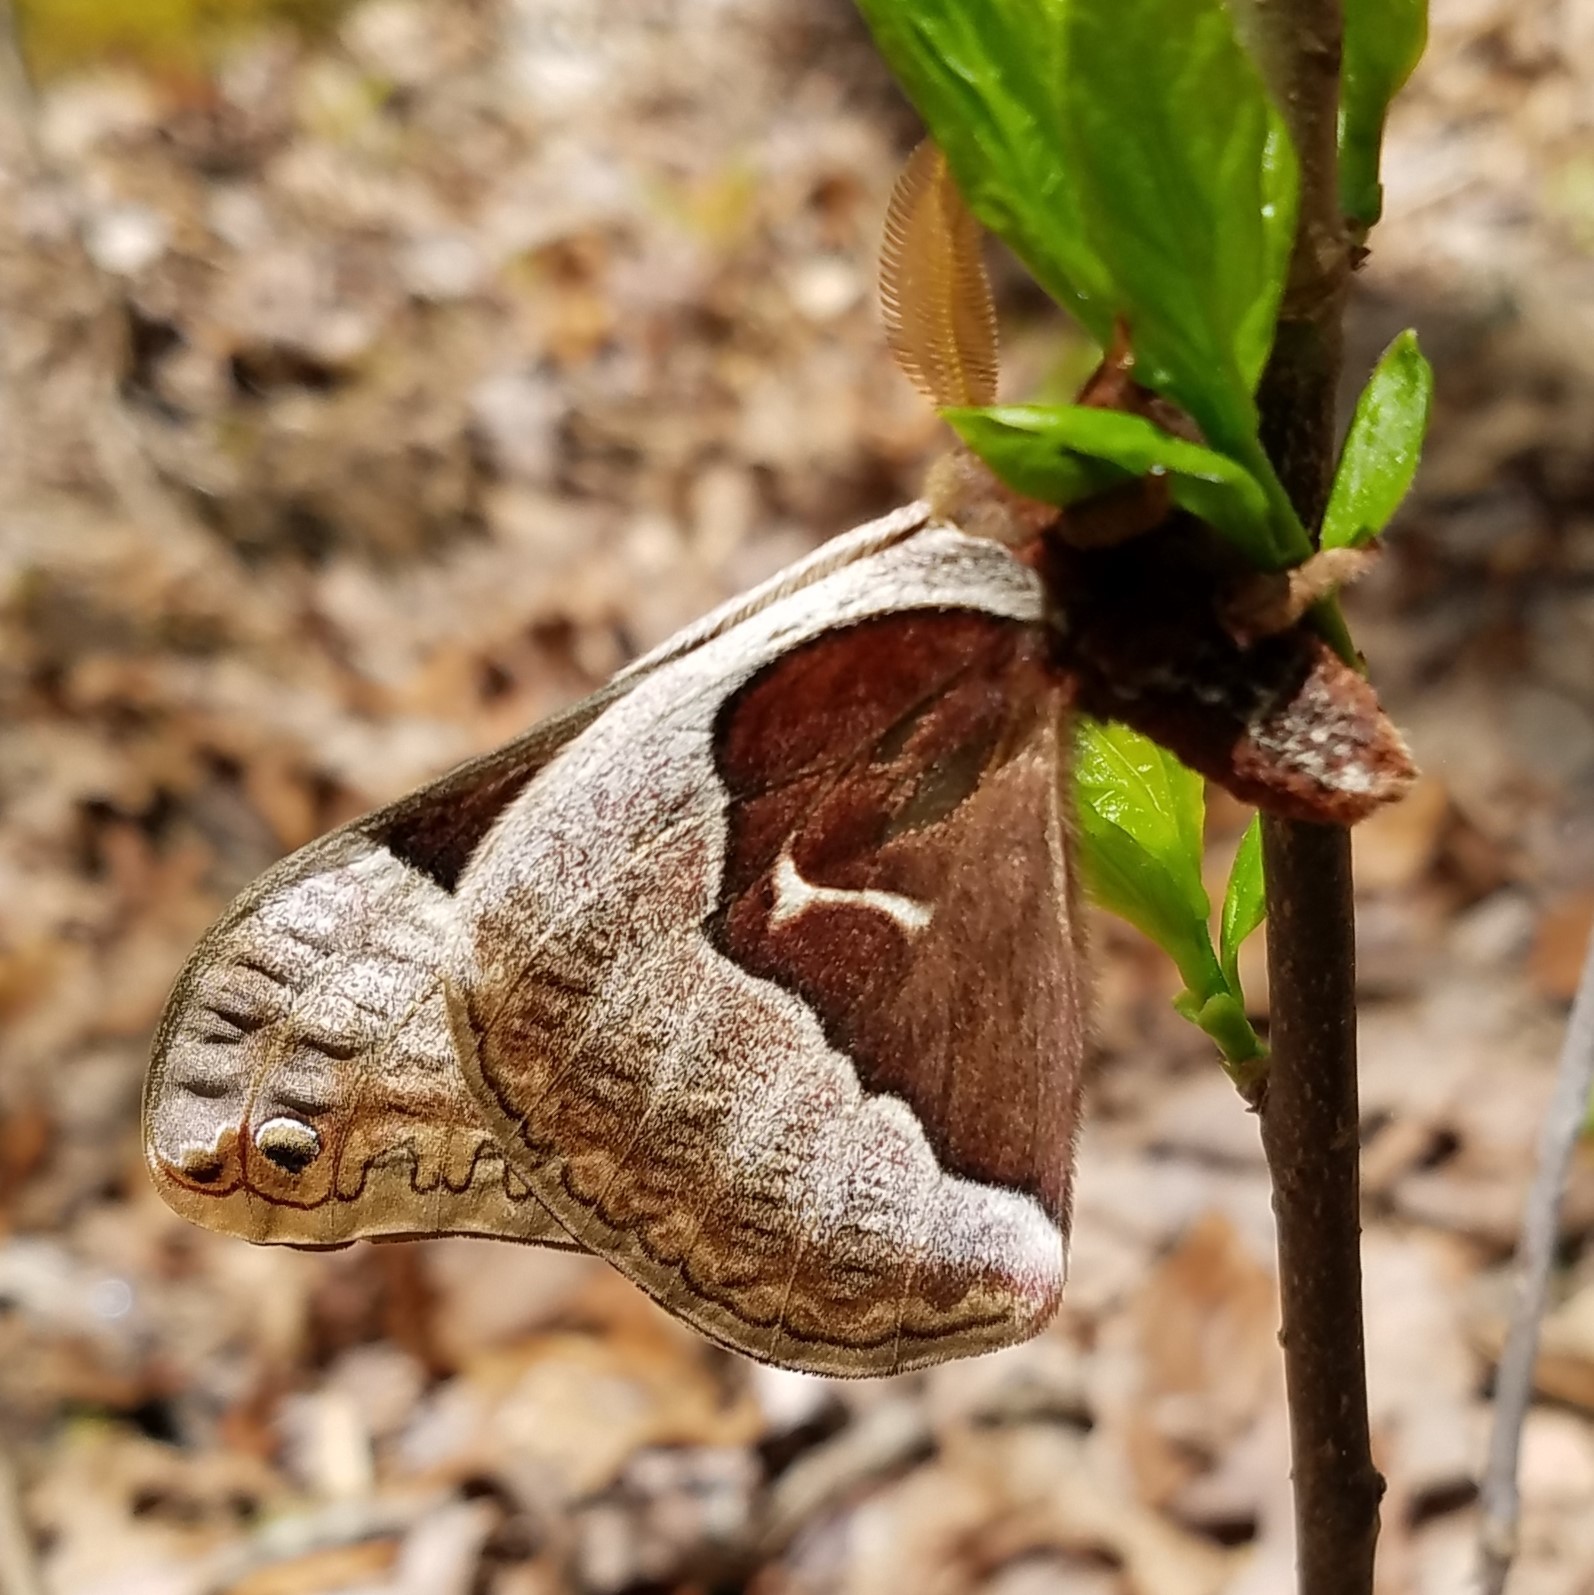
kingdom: Animalia
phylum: Arthropoda
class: Insecta
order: Lepidoptera
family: Saturniidae
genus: Callosamia
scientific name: Callosamia angulifera
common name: Tulip tree silkmoth
